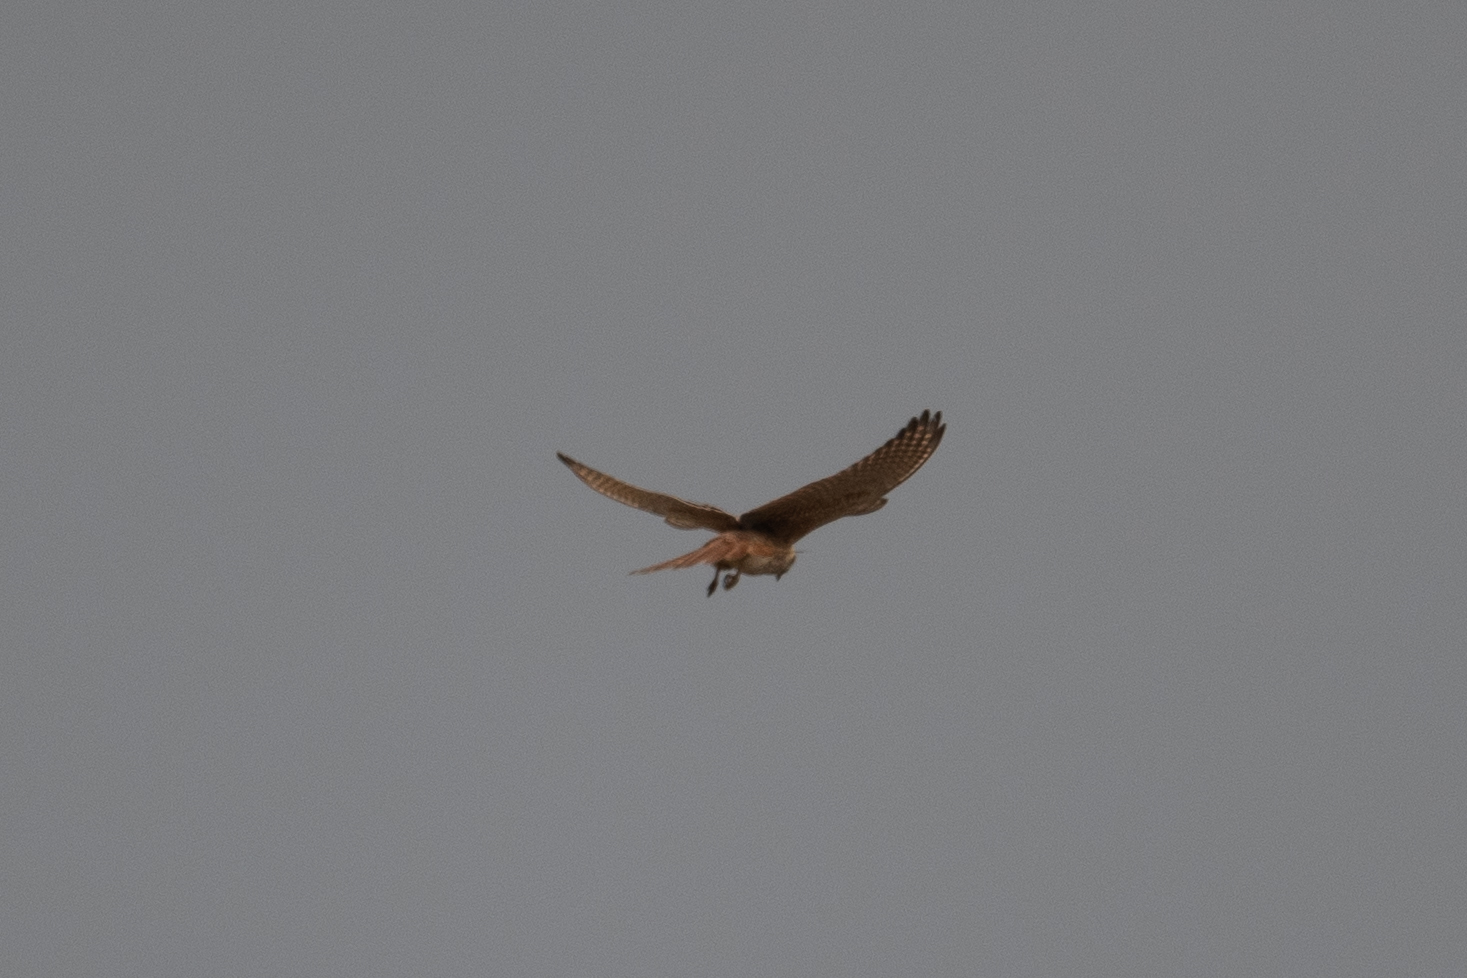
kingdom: Animalia
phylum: Chordata
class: Aves
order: Falconiformes
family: Falconidae
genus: Falco
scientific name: Falco sparverius
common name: American kestrel
